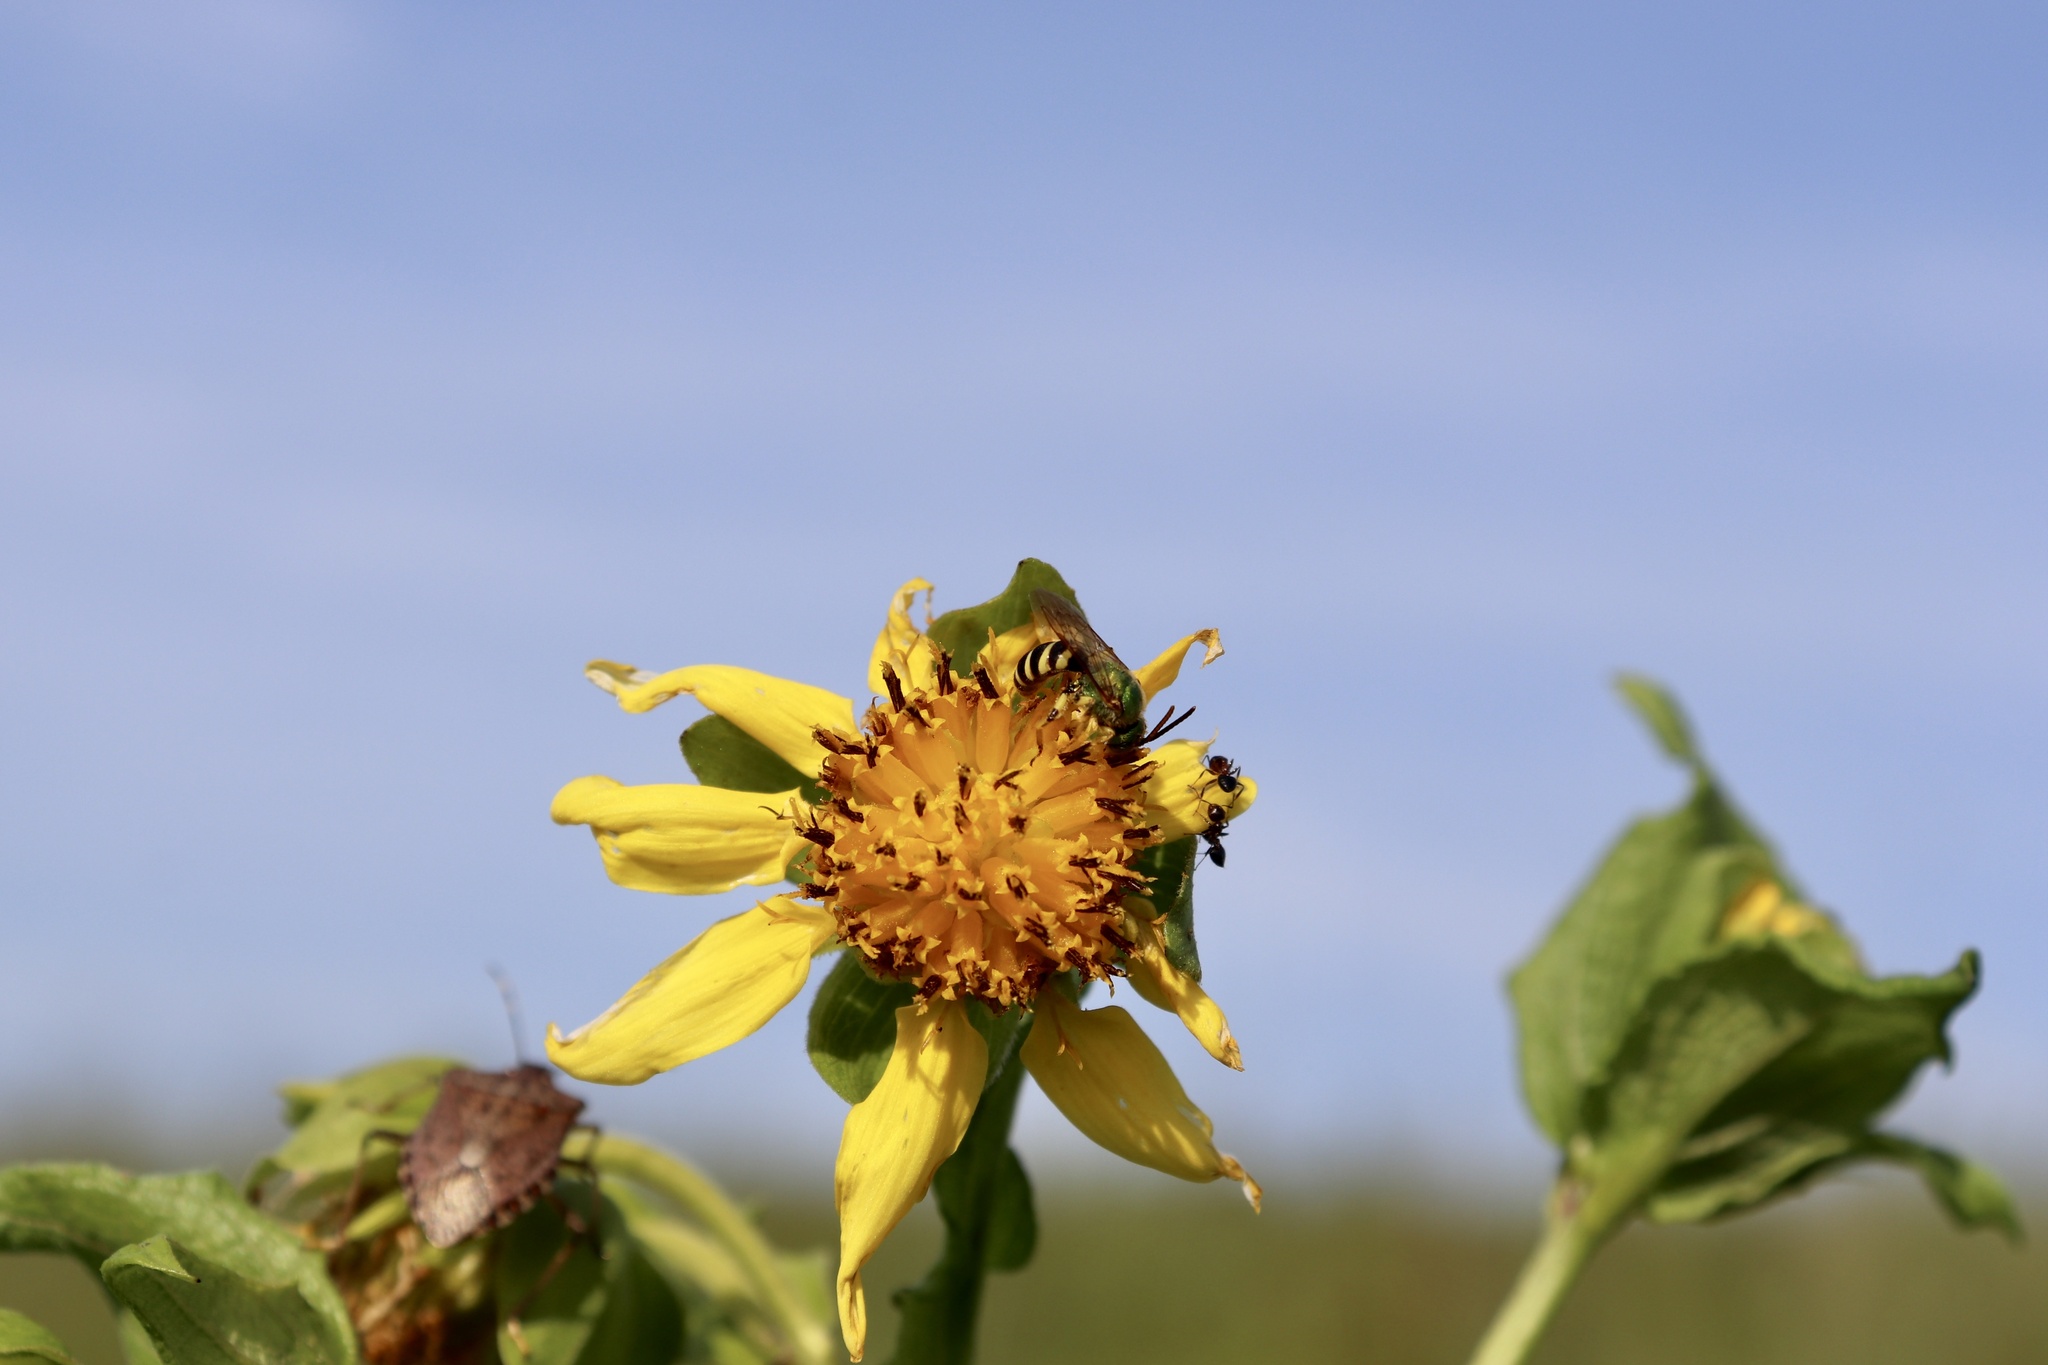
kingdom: Plantae
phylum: Tracheophyta
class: Magnoliopsida
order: Asterales
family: Asteraceae
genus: Smallanthus
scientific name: Smallanthus uvedalia
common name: Bear's-foot
